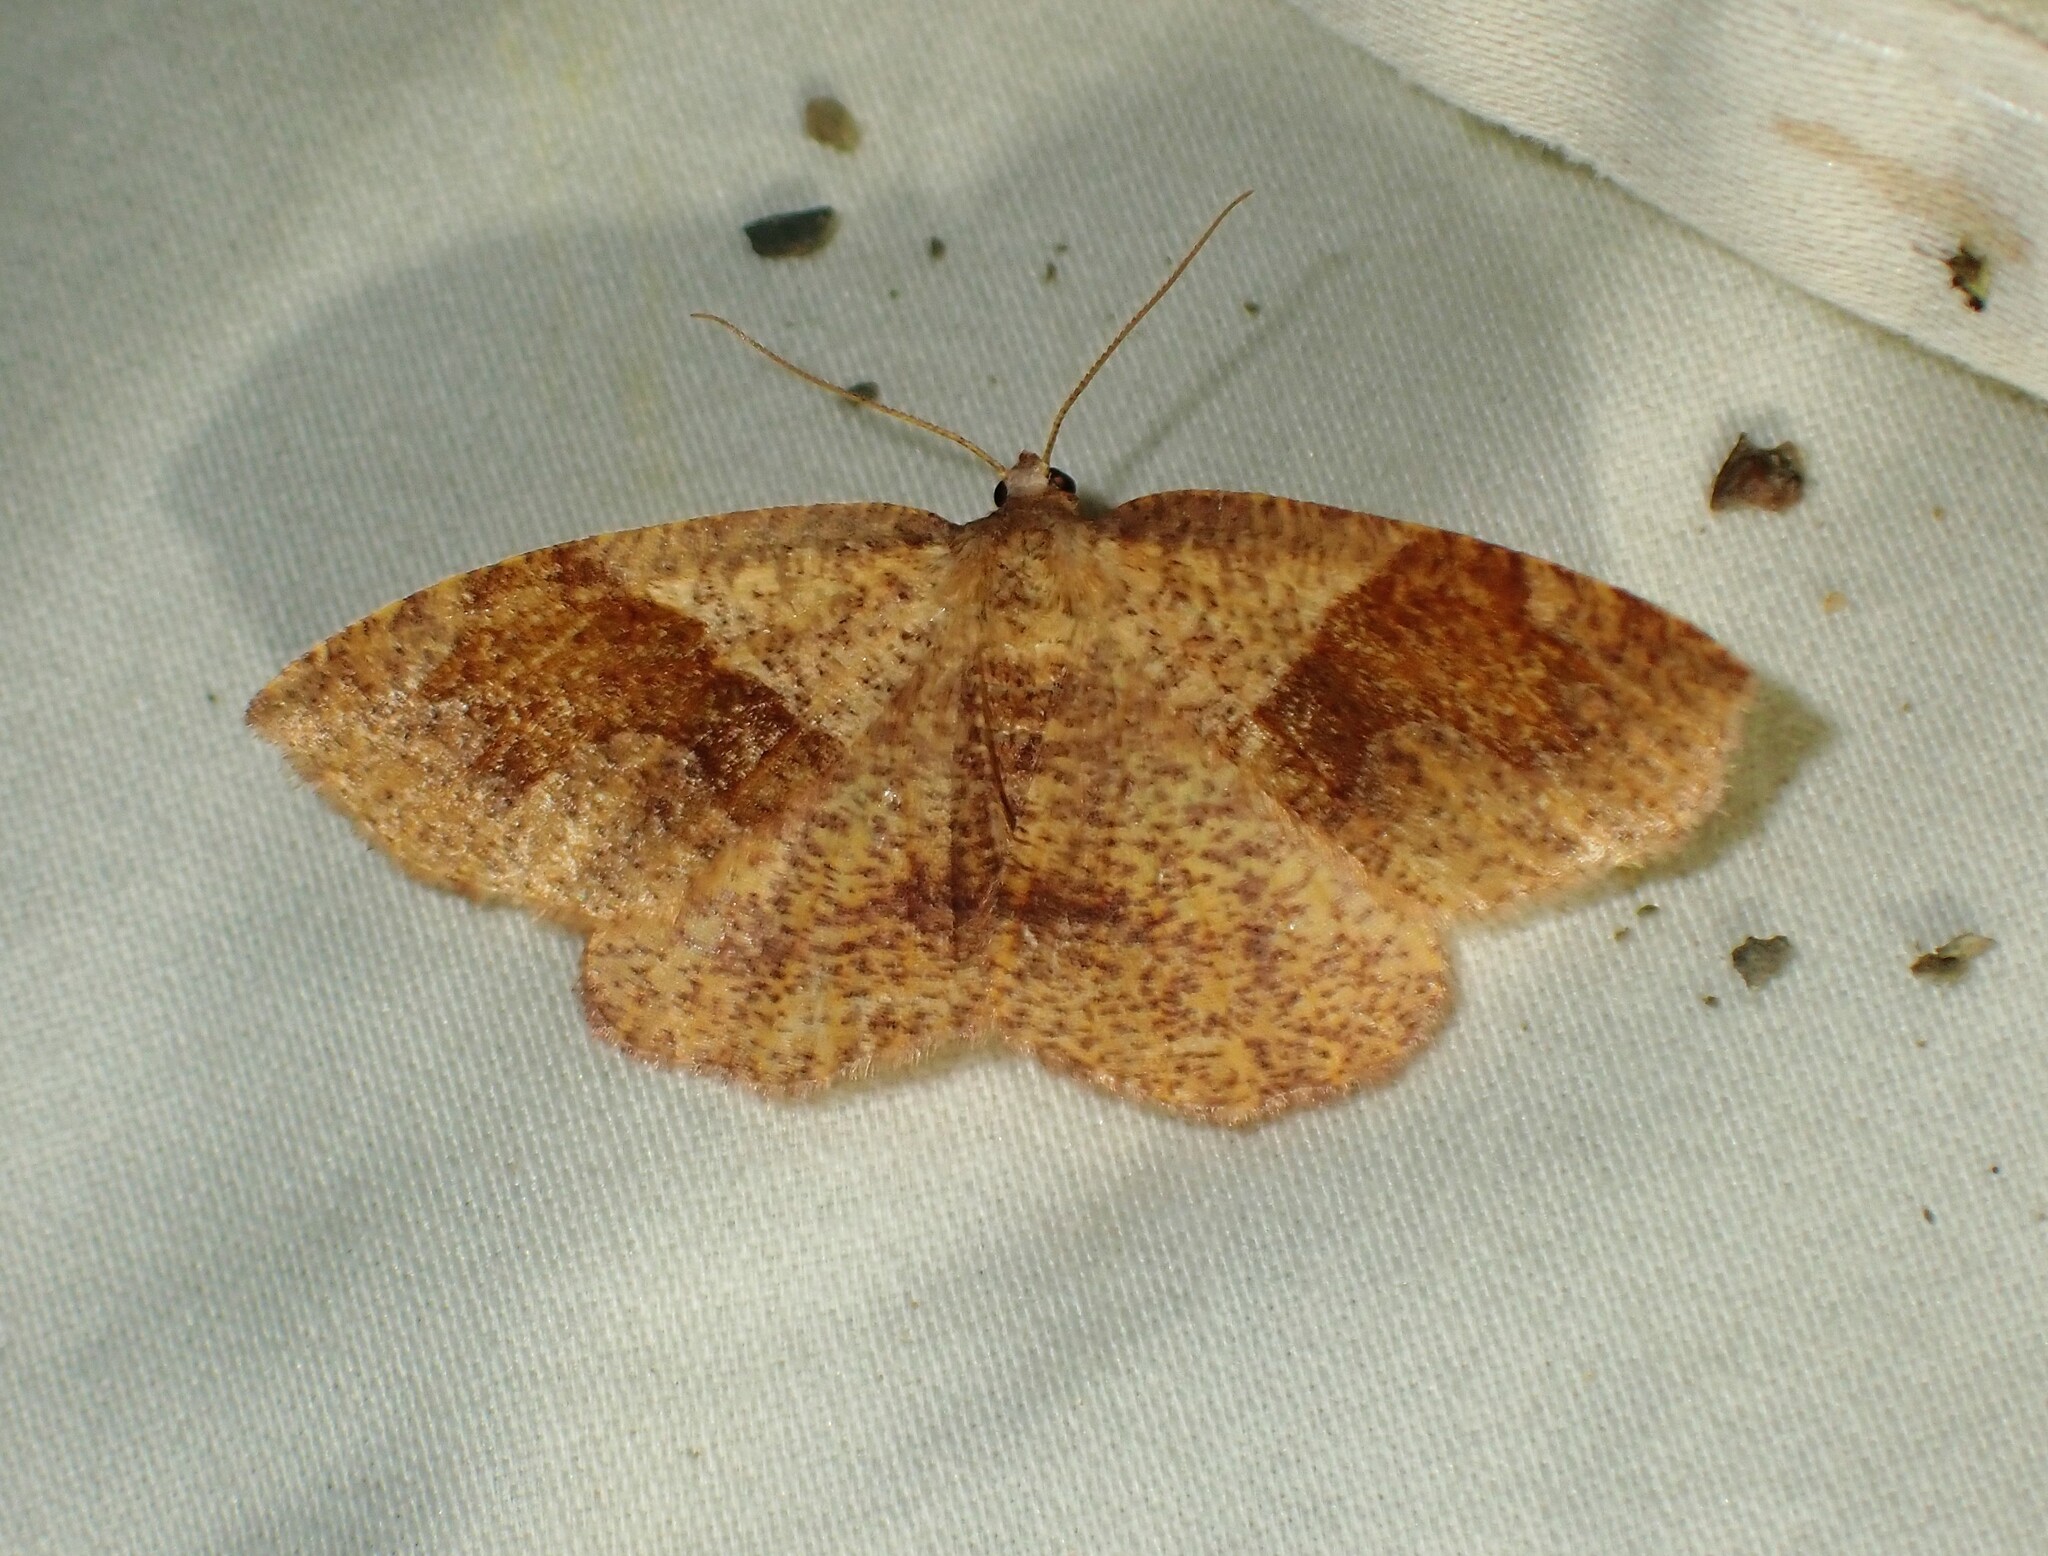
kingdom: Animalia
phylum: Arthropoda
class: Insecta
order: Lepidoptera
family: Geometridae
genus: Plagodis
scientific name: Plagodis pulveraria
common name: Barred umber
